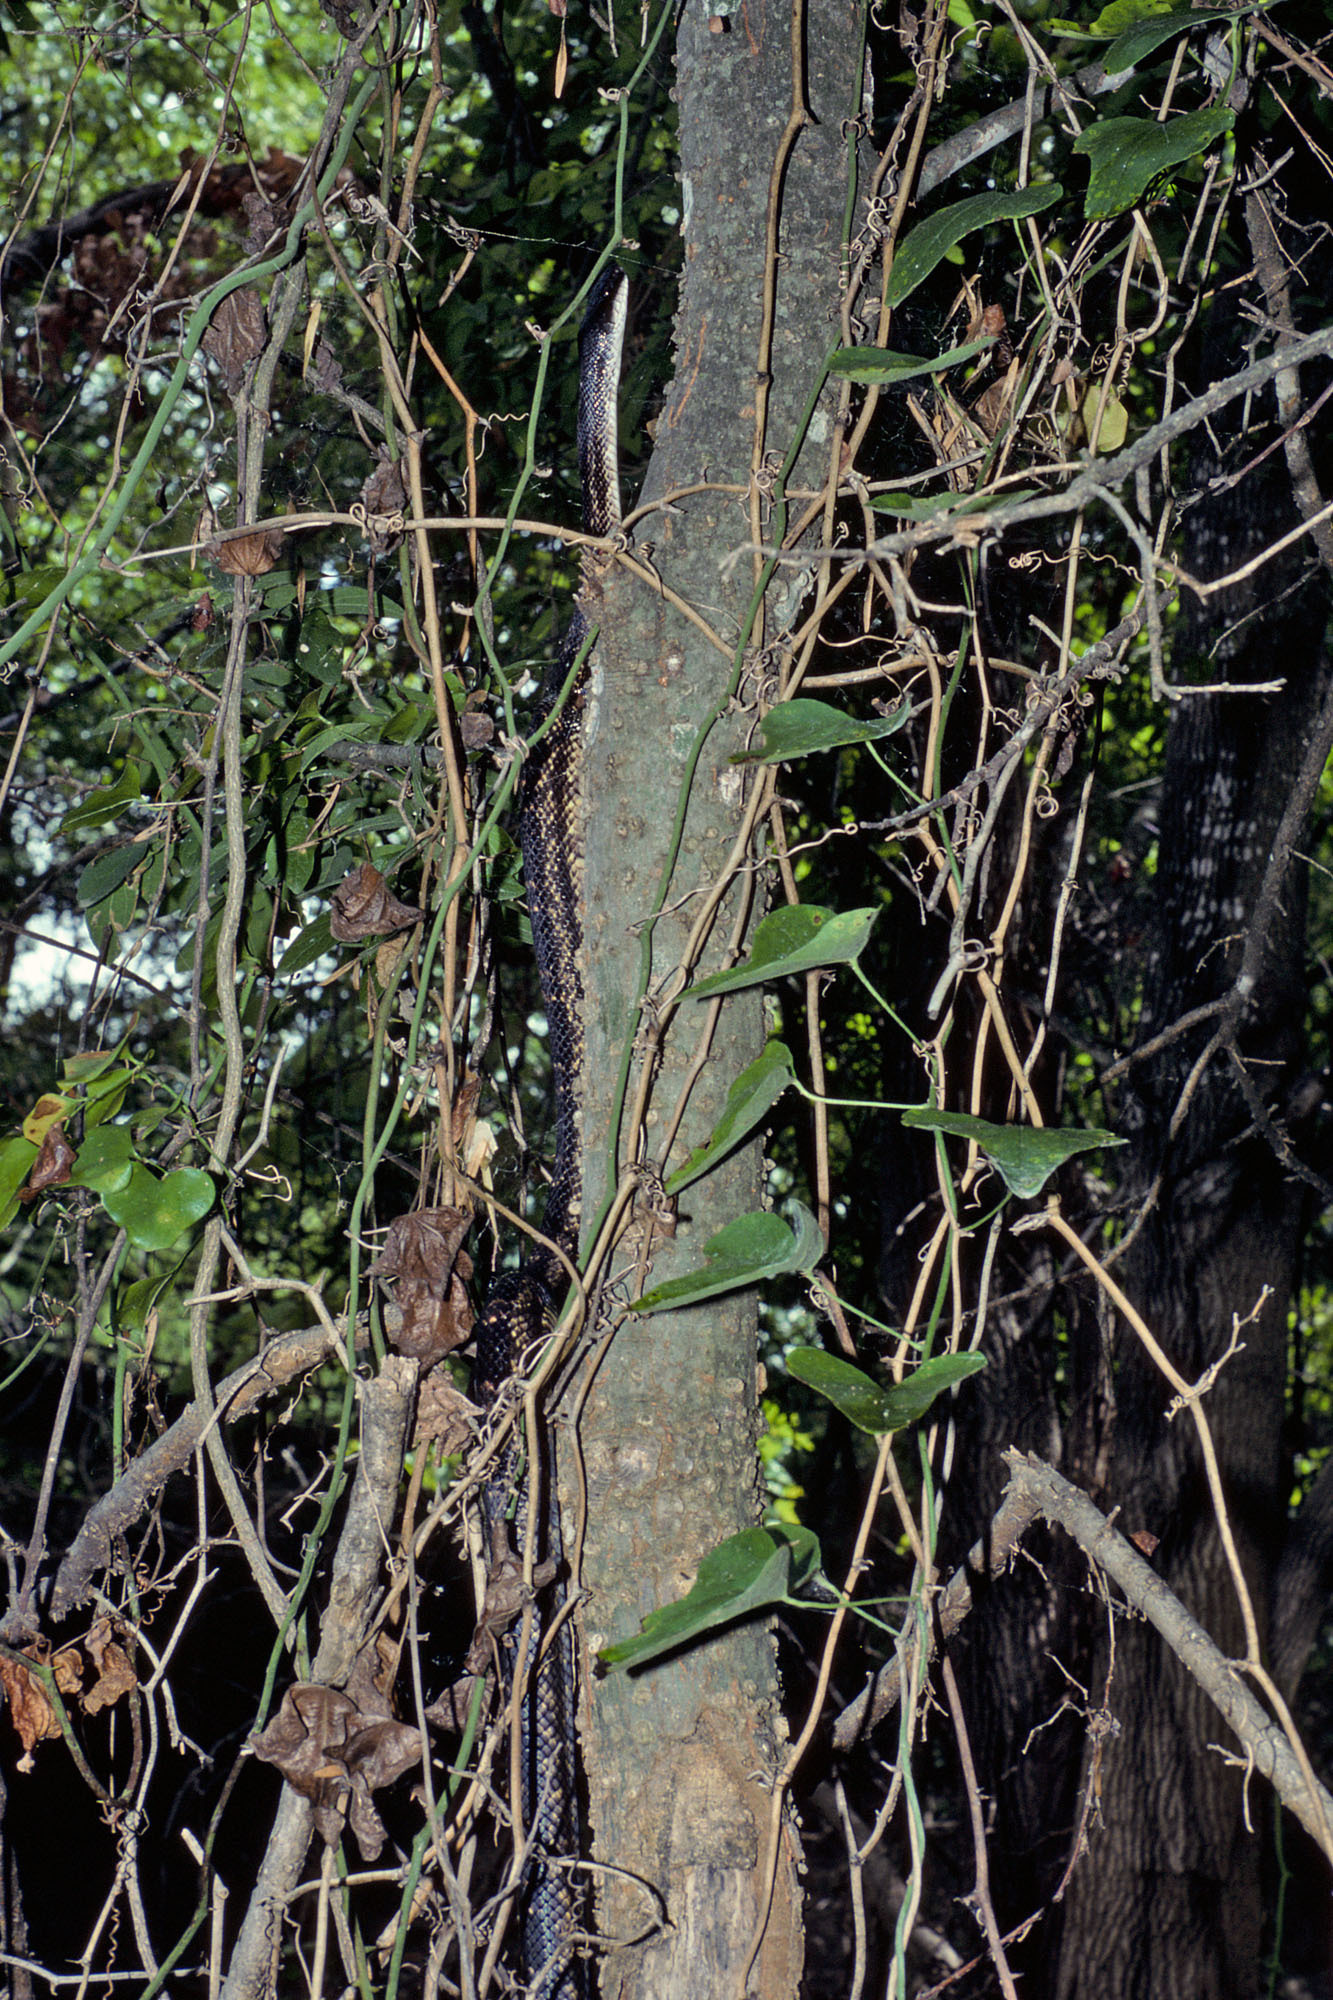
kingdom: Animalia
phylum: Chordata
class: Squamata
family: Colubridae
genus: Pantherophis
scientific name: Pantherophis obsoletus
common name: Black rat snake
